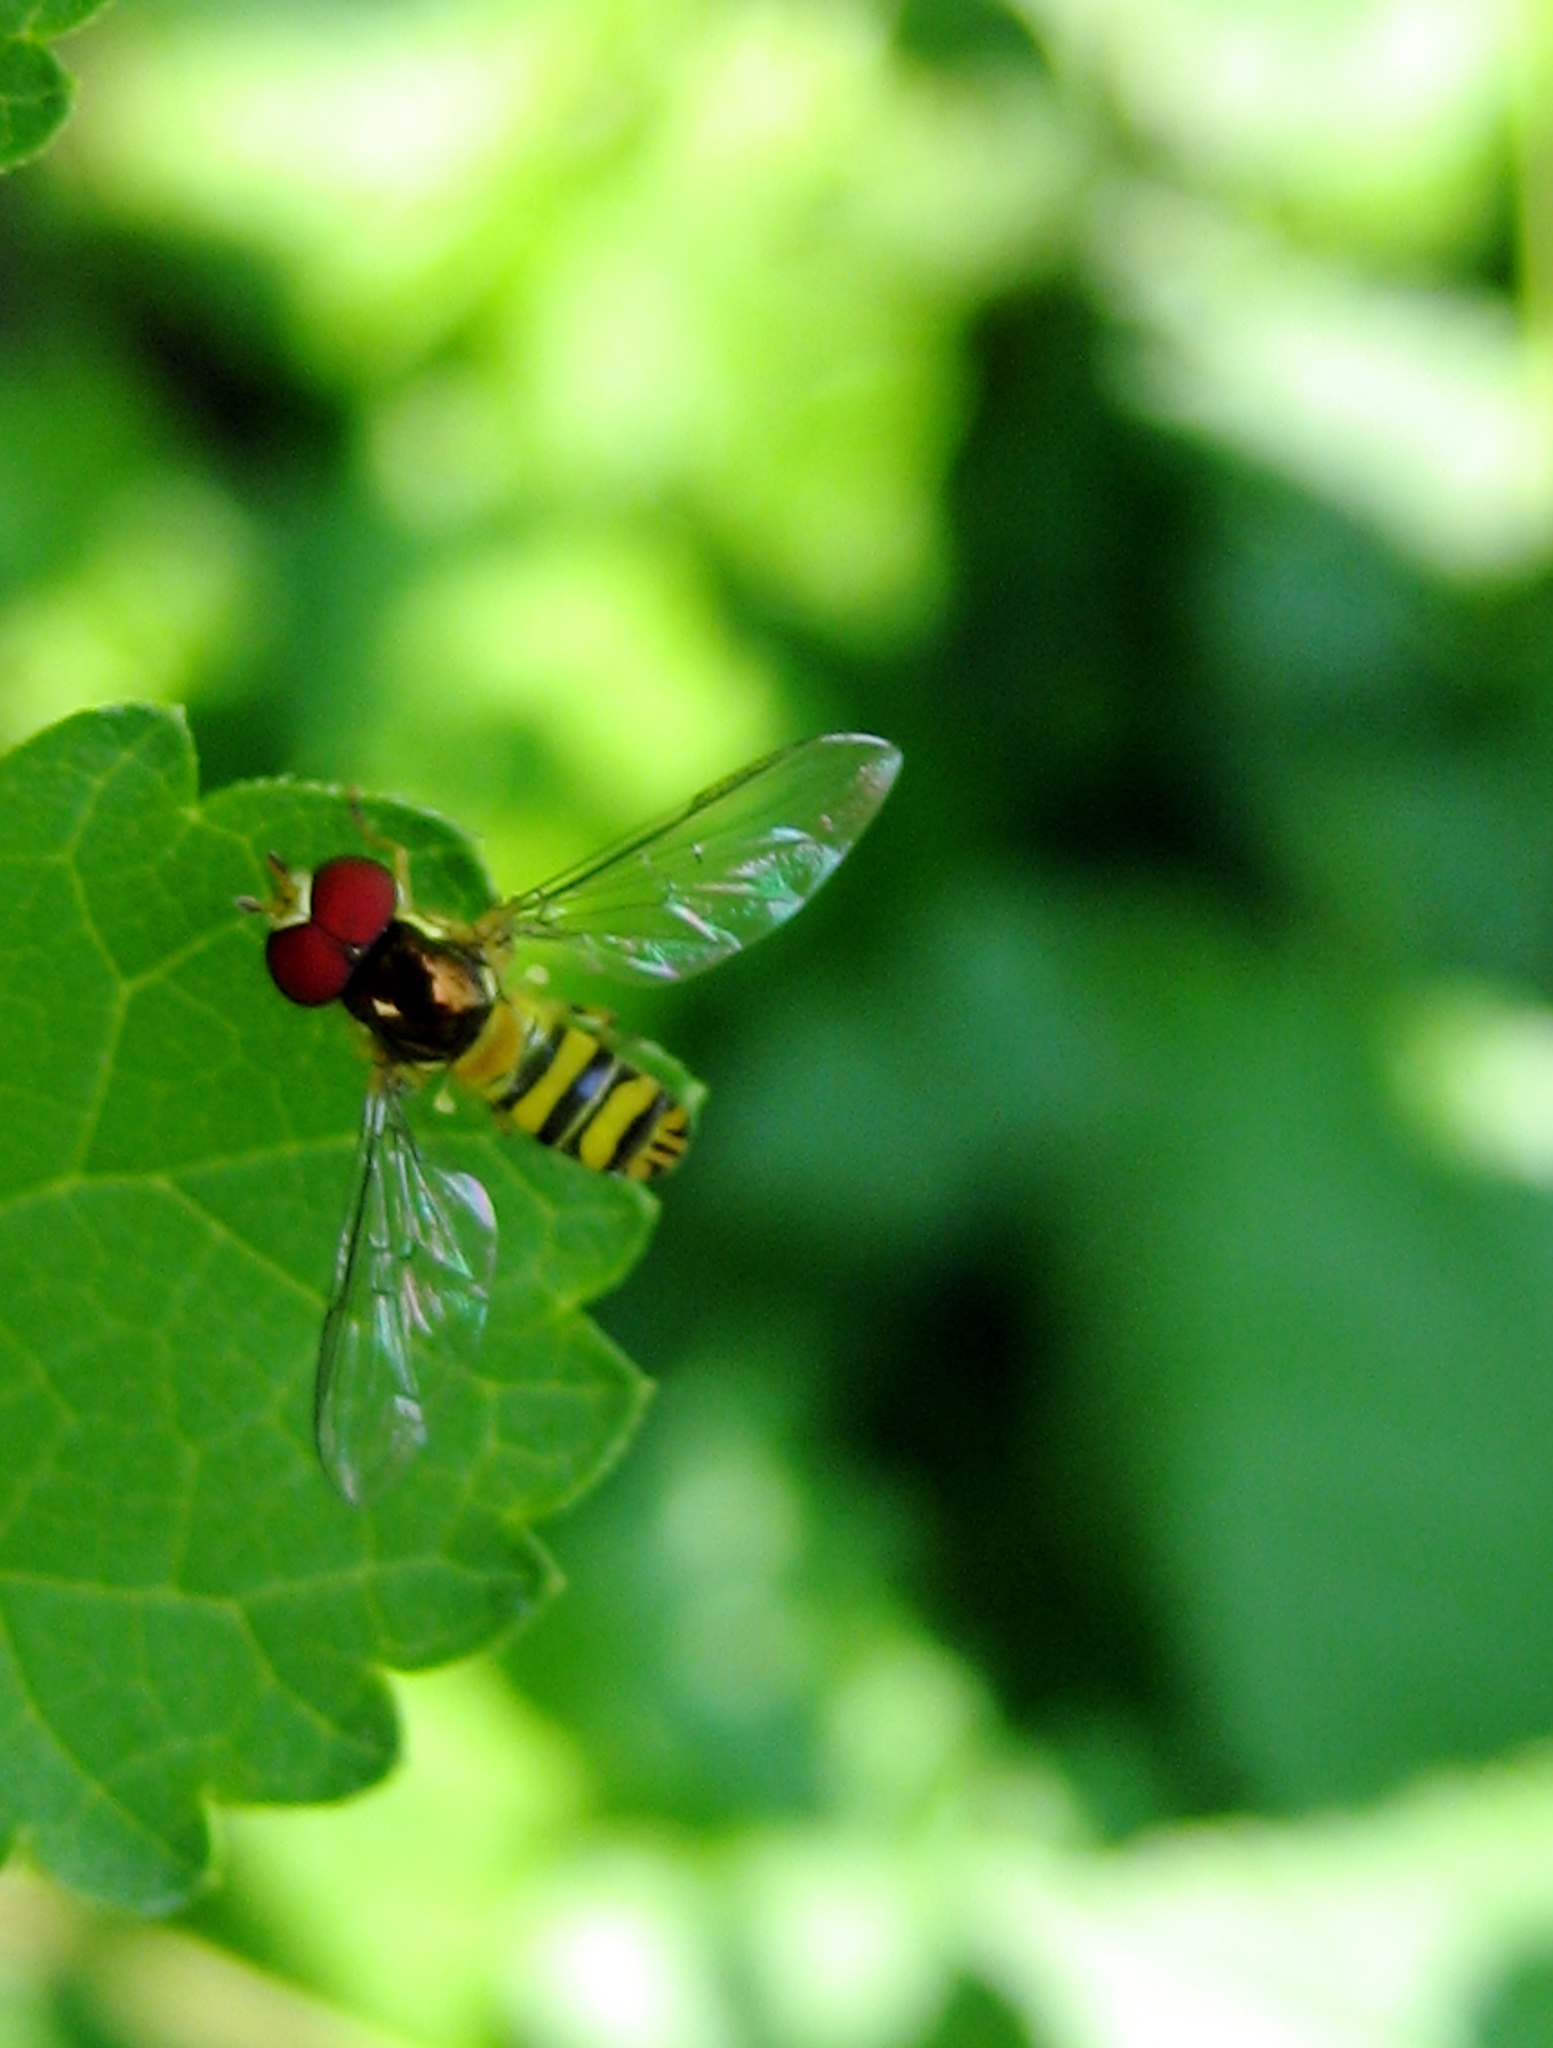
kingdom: Animalia
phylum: Arthropoda
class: Insecta
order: Diptera
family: Syrphidae
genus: Allograpta
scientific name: Allograpta obliqua
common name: Common oblique syrphid
